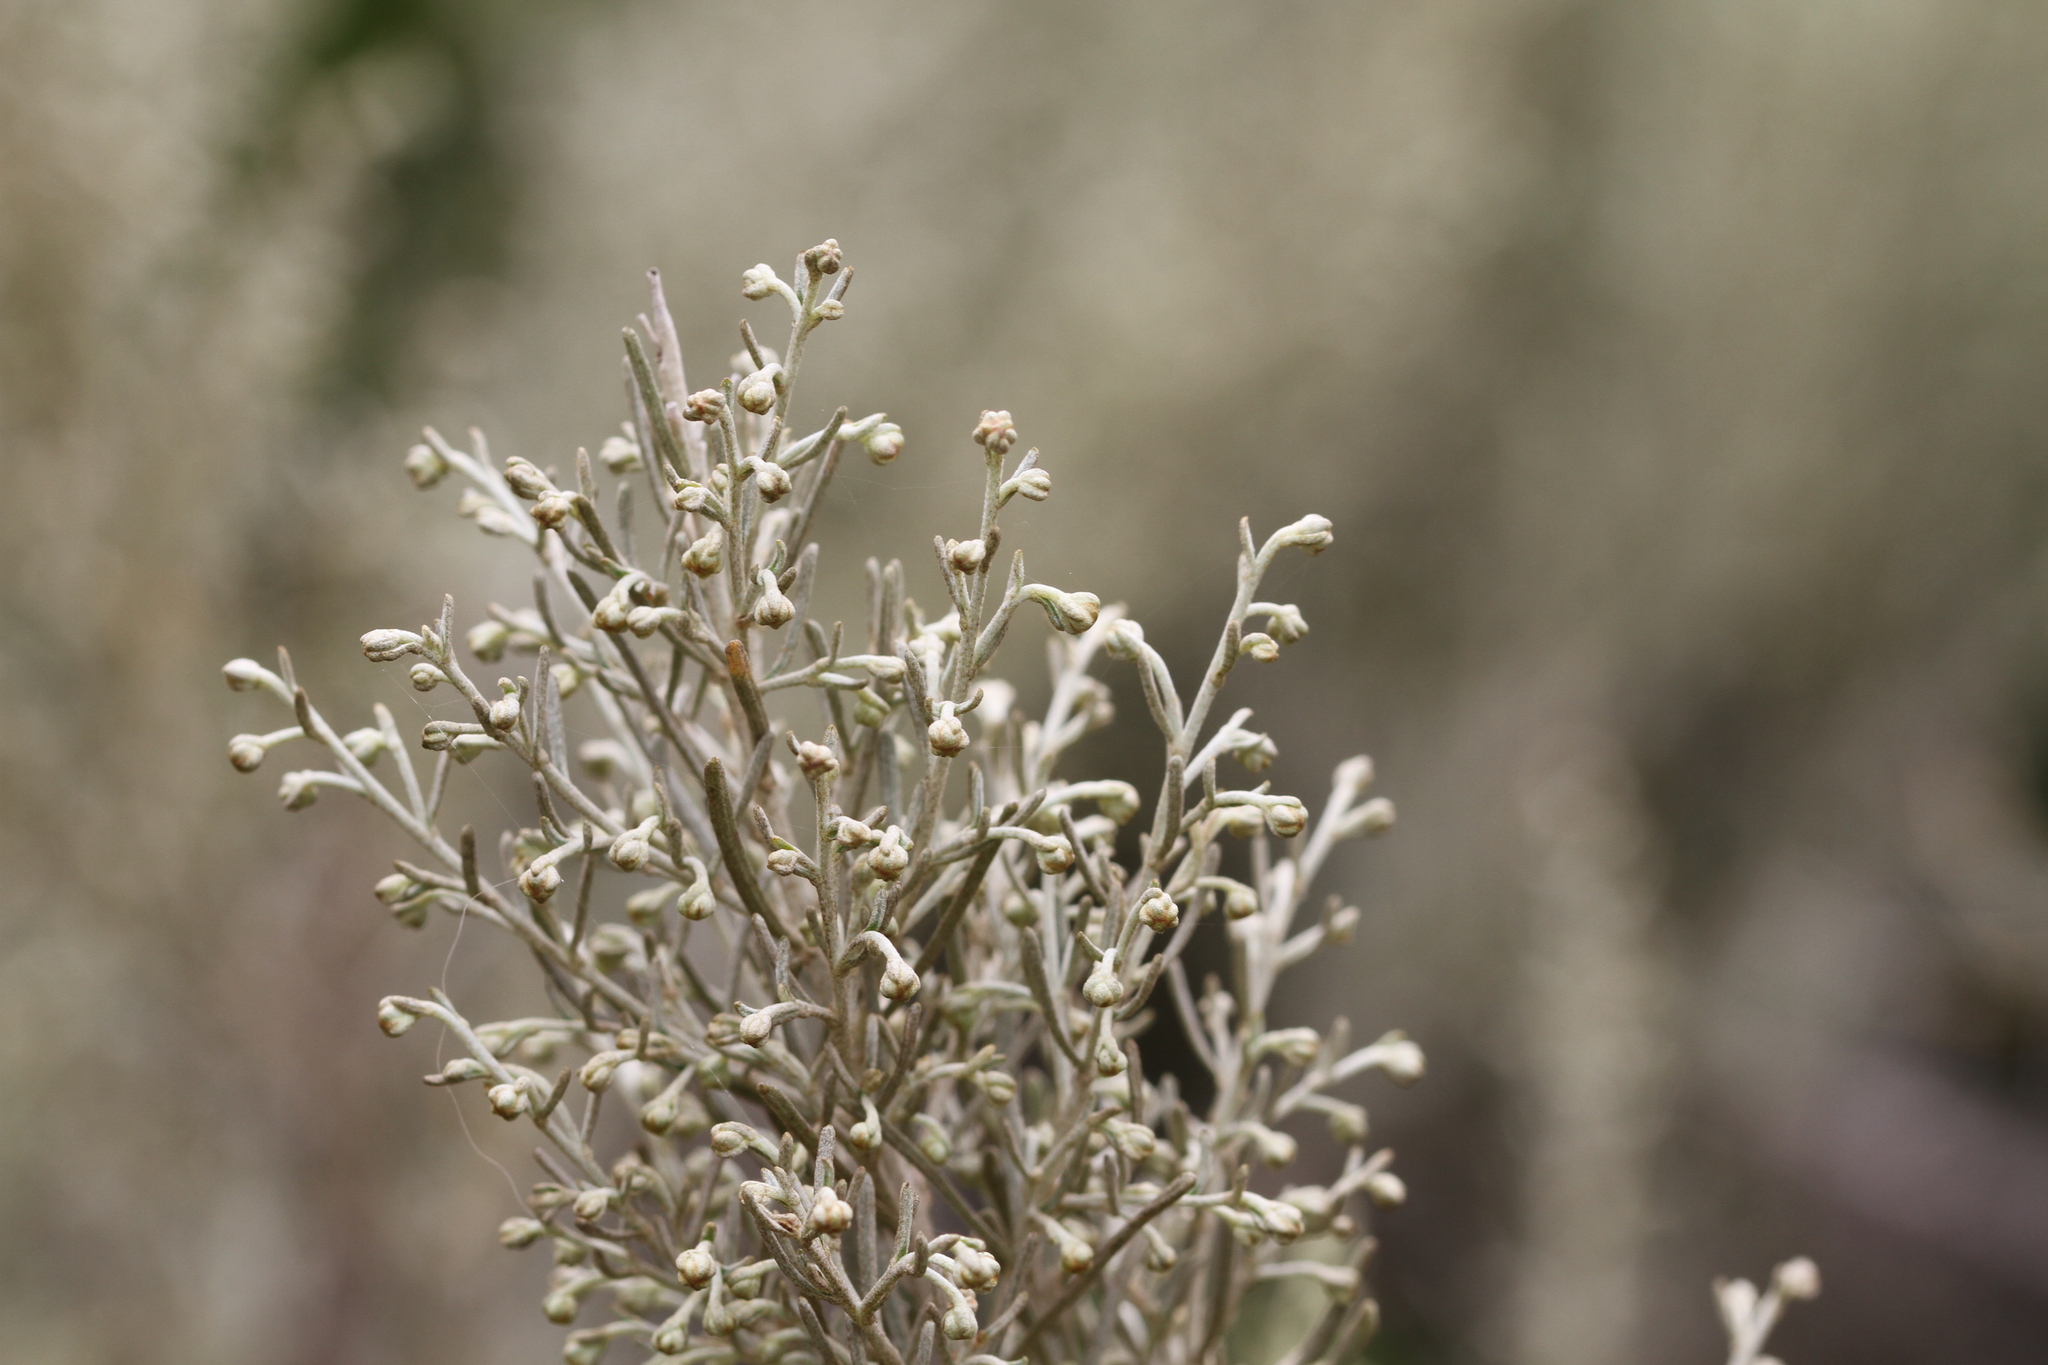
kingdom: Plantae
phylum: Tracheophyta
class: Magnoliopsida
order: Asterales
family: Asteraceae
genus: Artemisia
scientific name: Artemisia californica
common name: California sagebrush
